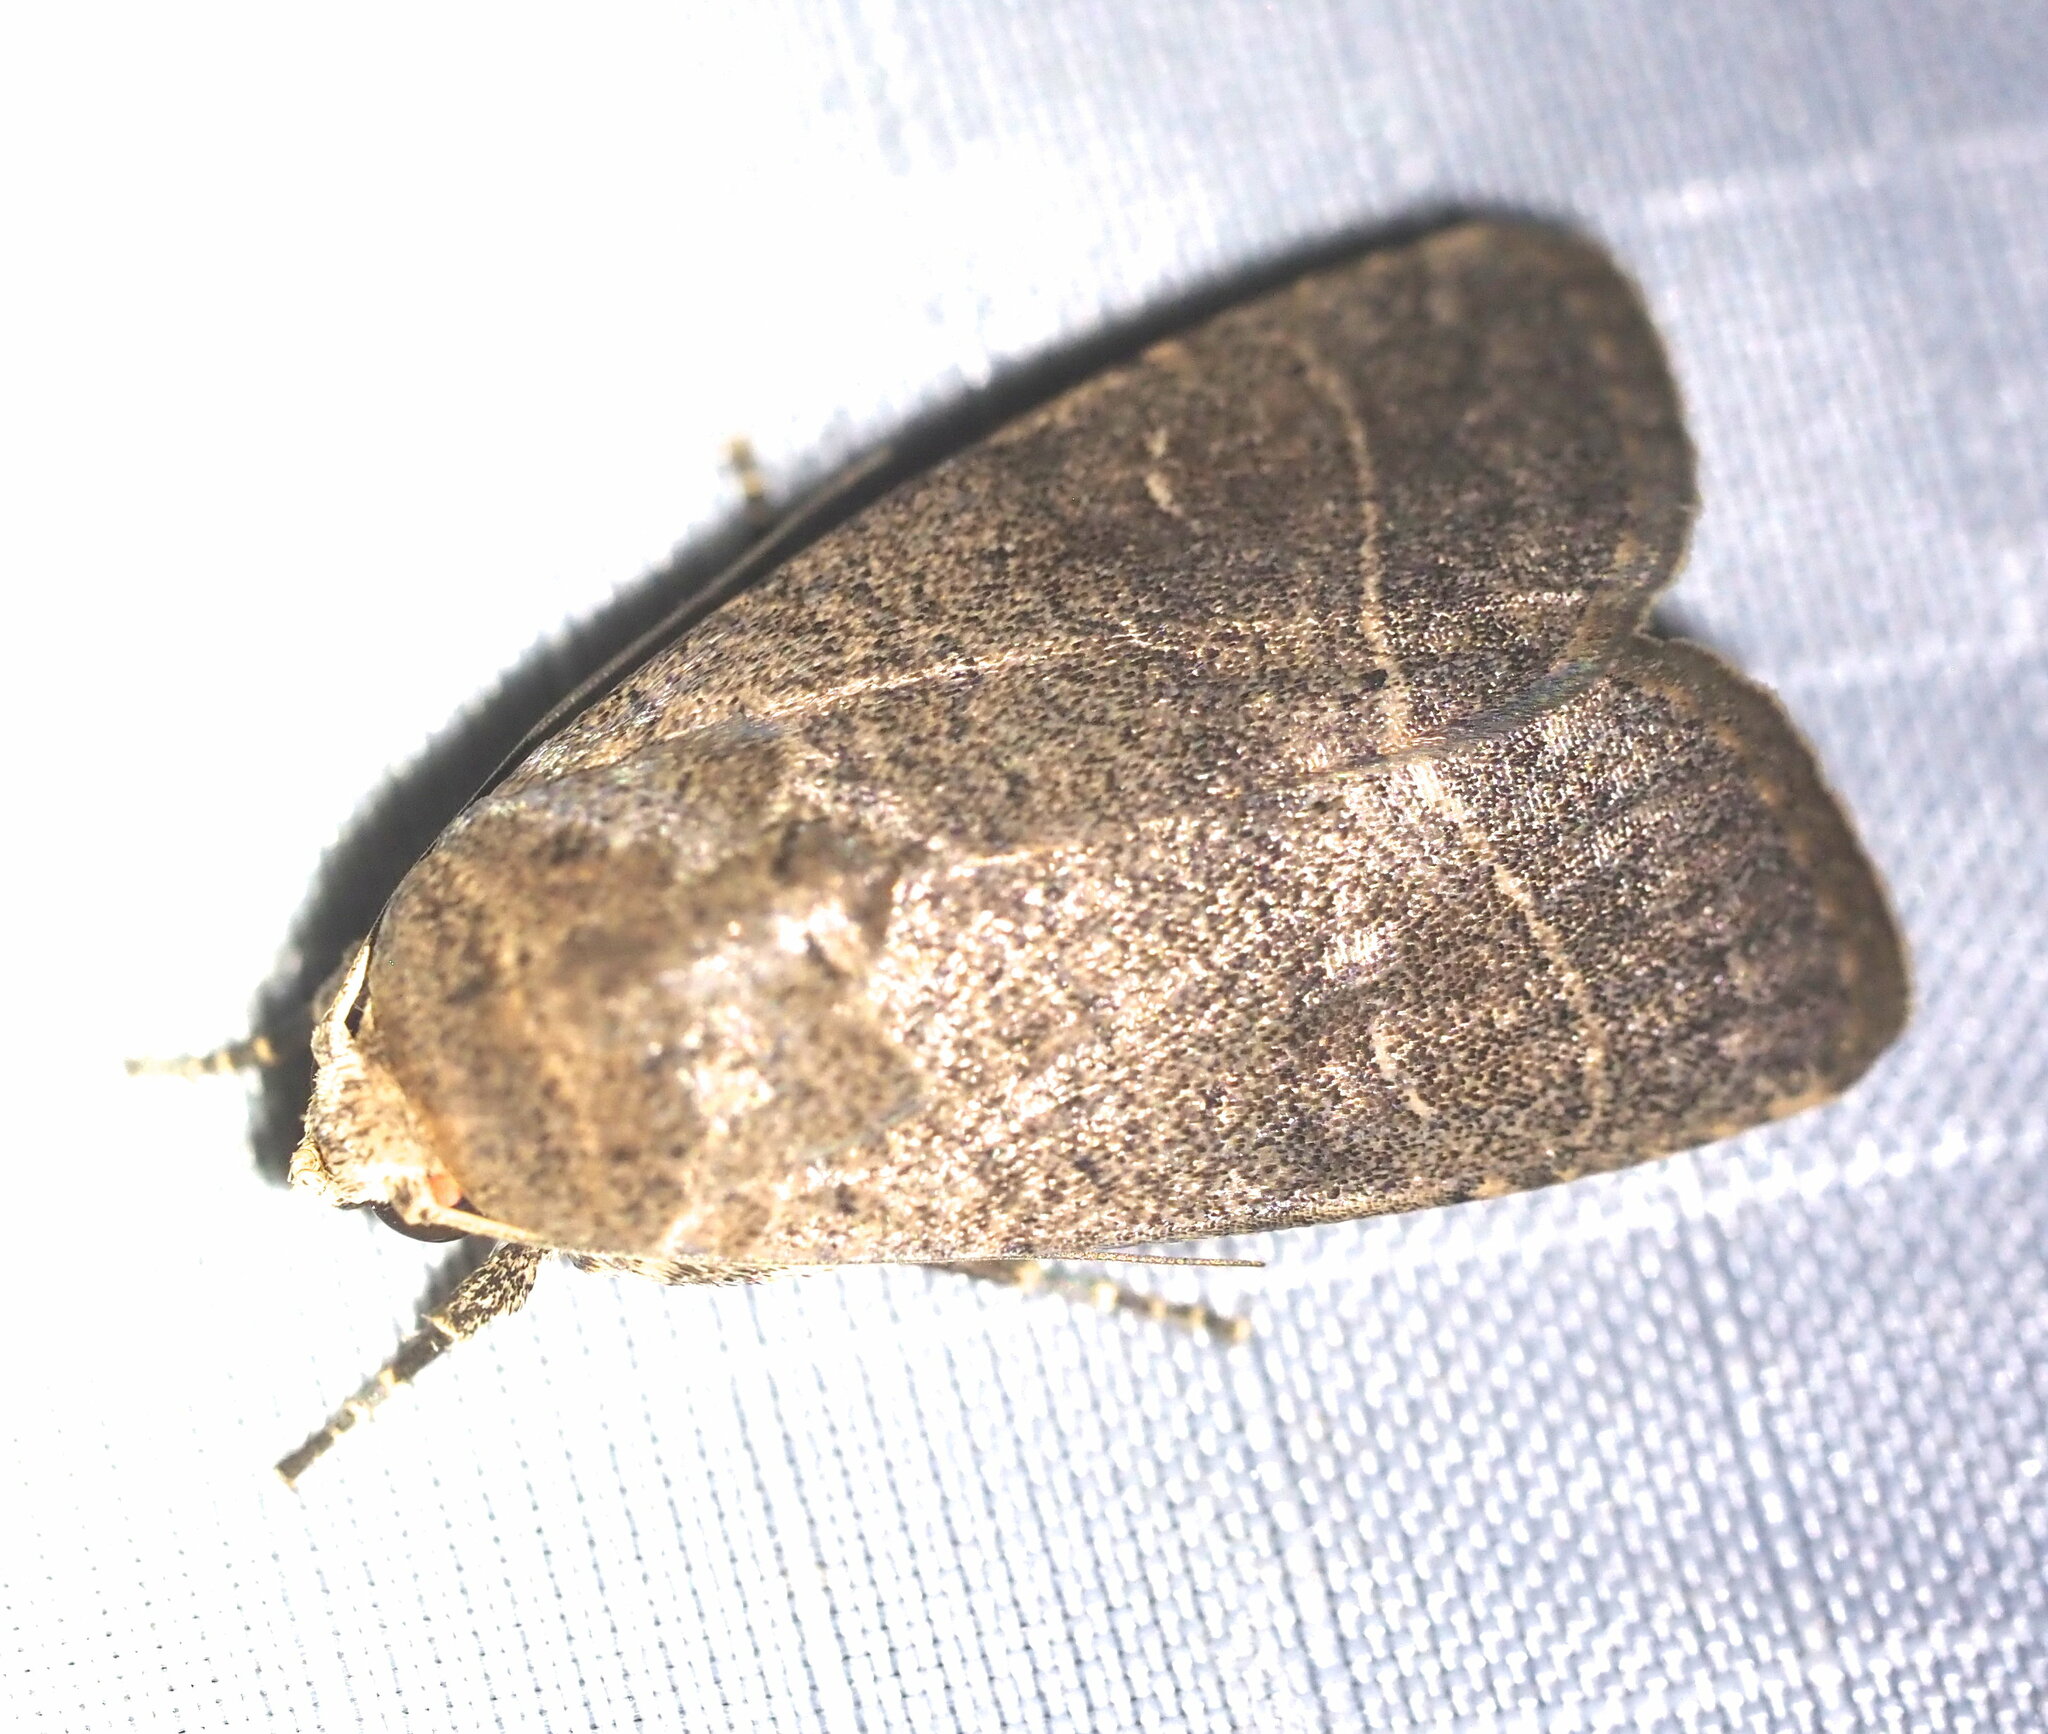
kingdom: Animalia
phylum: Arthropoda
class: Insecta
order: Lepidoptera
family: Noctuidae
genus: Athetis
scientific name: Athetis thoracica
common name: Cutworm
